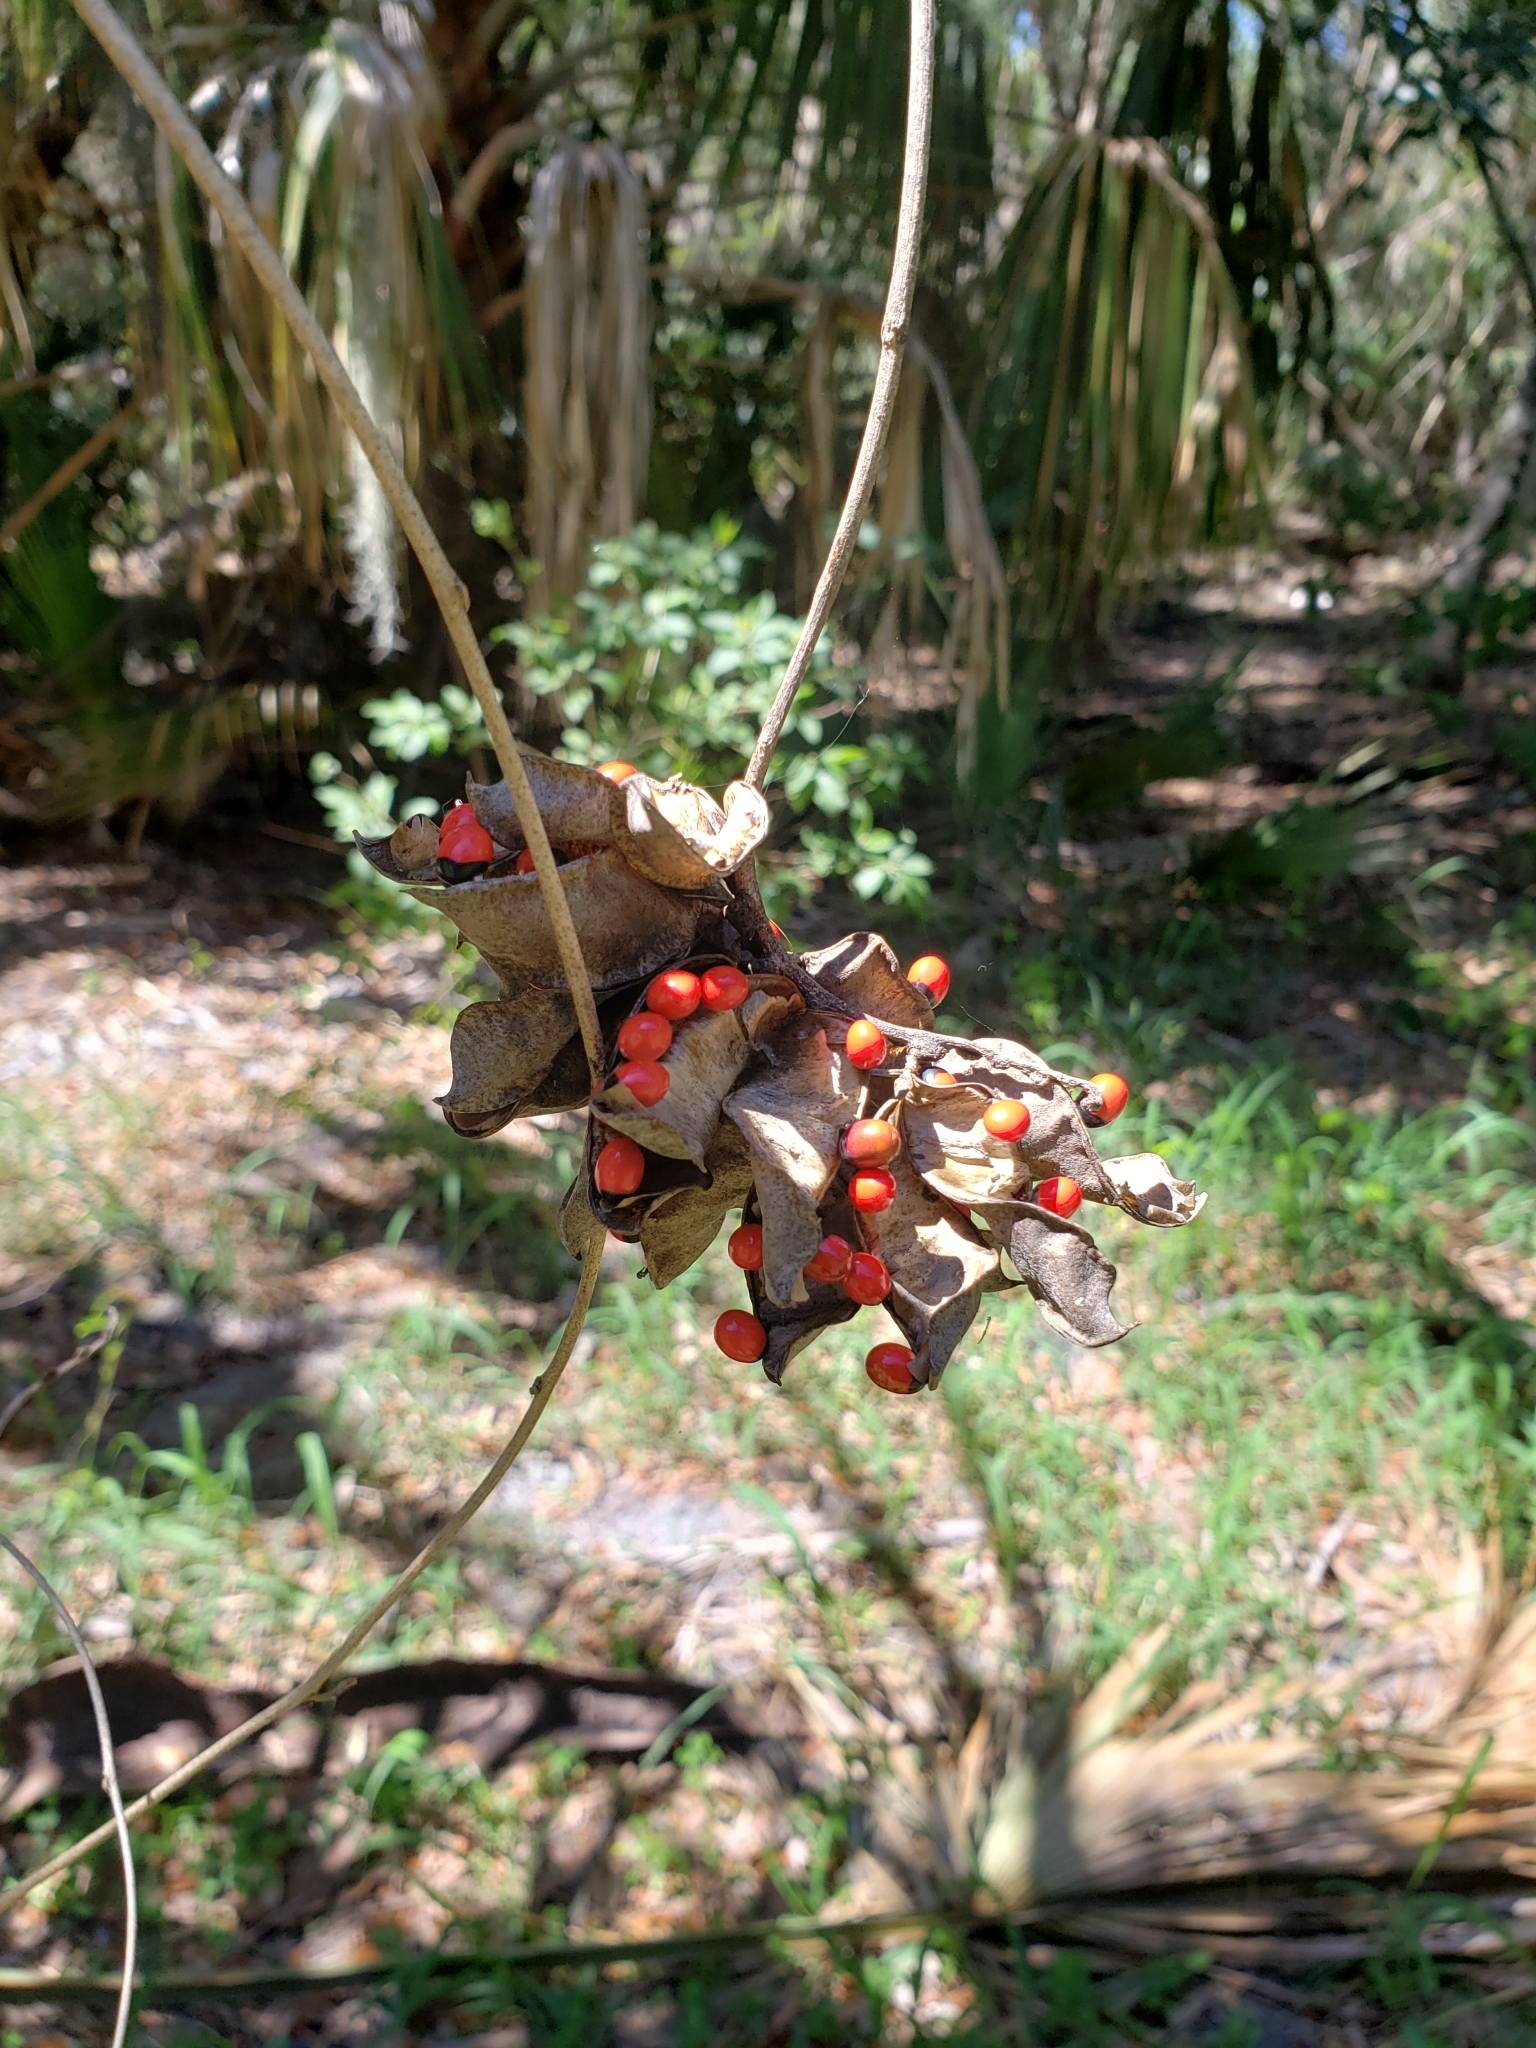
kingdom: Plantae
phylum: Tracheophyta
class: Magnoliopsida
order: Fabales
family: Fabaceae
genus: Abrus
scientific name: Abrus precatorius
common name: Rosarypea
